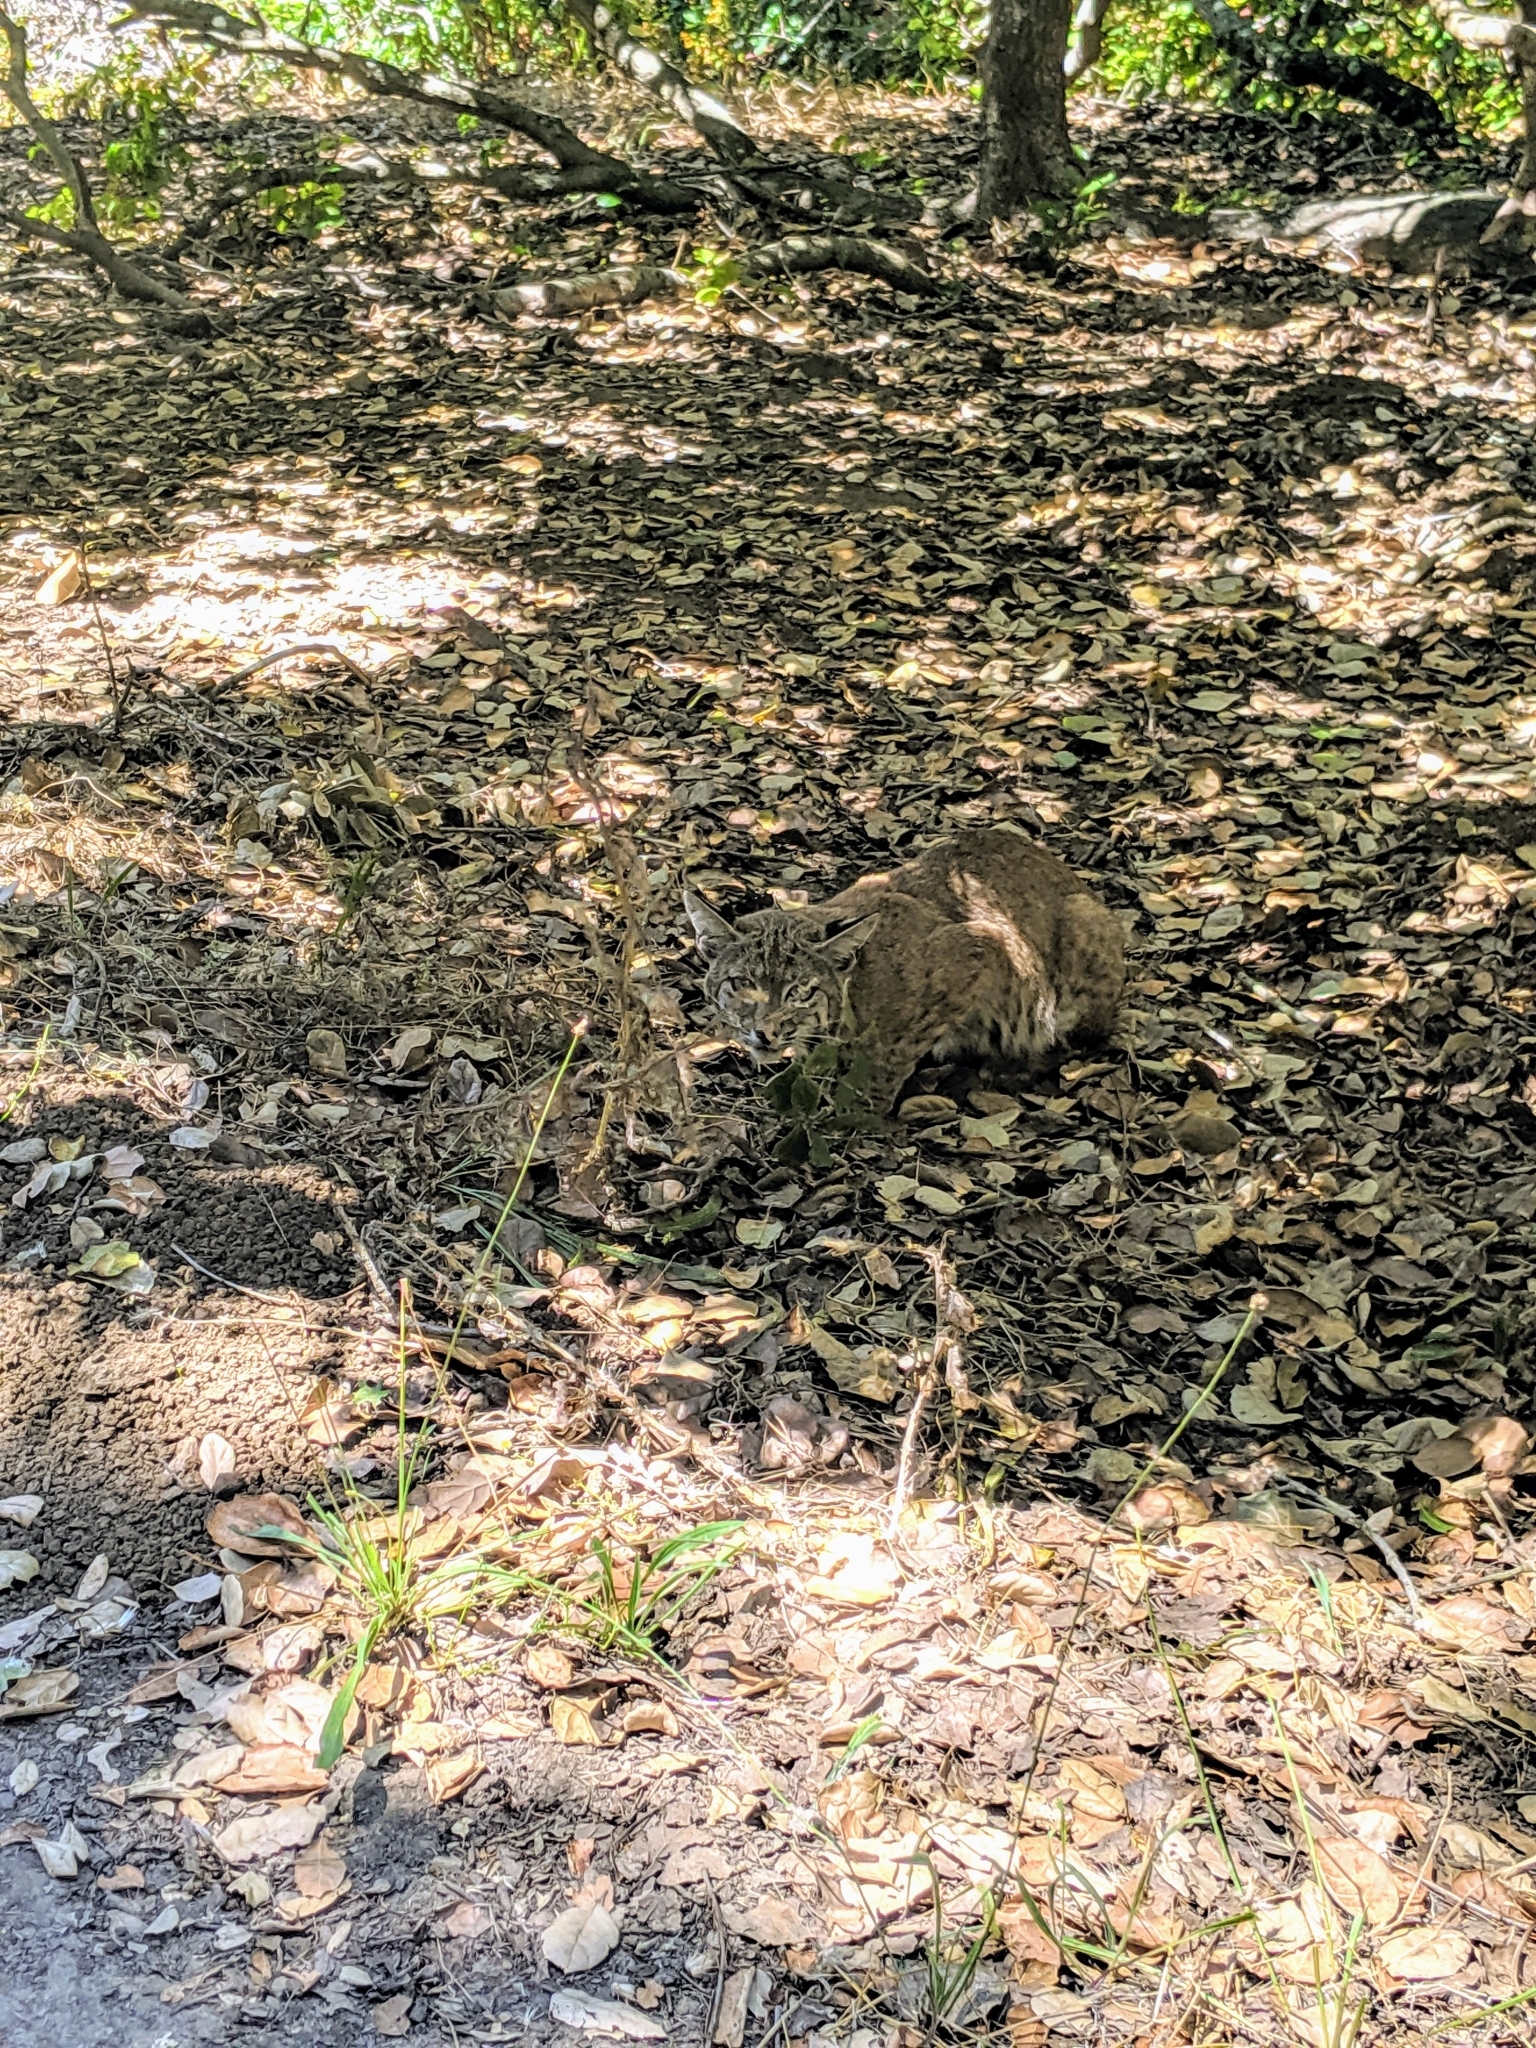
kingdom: Animalia
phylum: Chordata
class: Mammalia
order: Carnivora
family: Felidae
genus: Lynx
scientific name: Lynx rufus
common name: Bobcat
